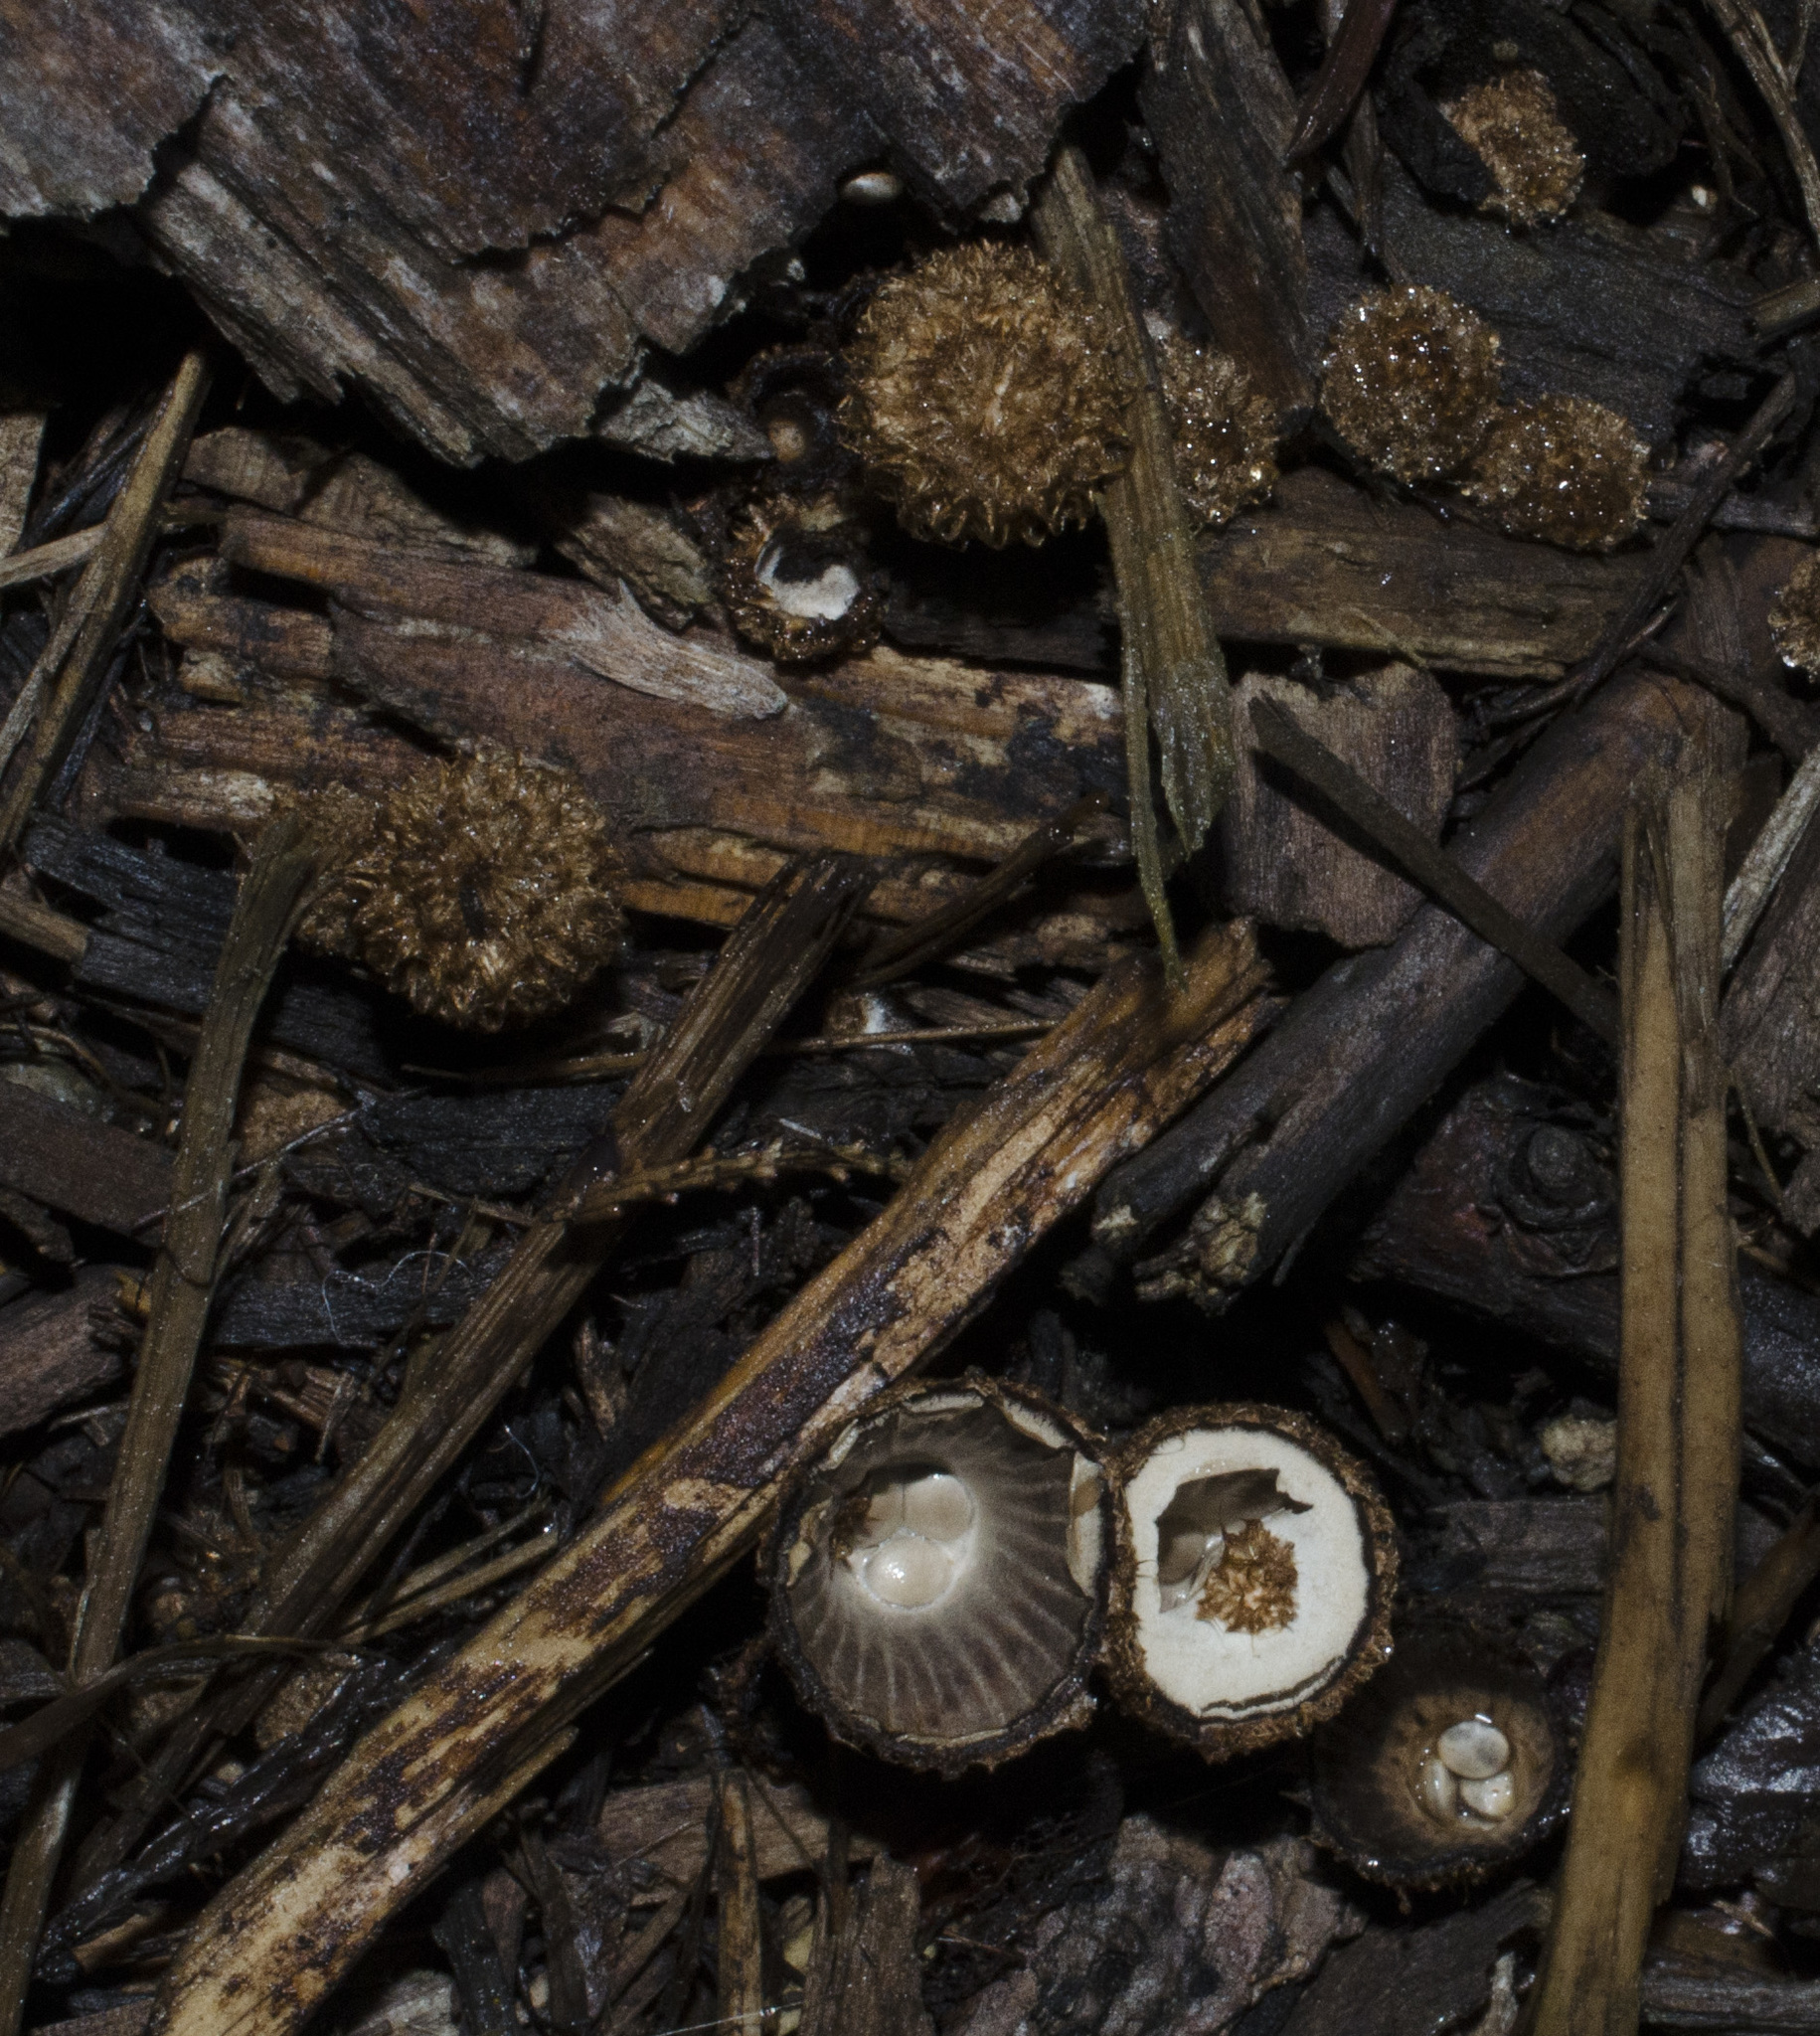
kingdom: Fungi
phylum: Basidiomycota
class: Agaricomycetes
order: Agaricales
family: Agaricaceae
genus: Cyathus
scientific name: Cyathus striatus
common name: Fluted bird's nest
